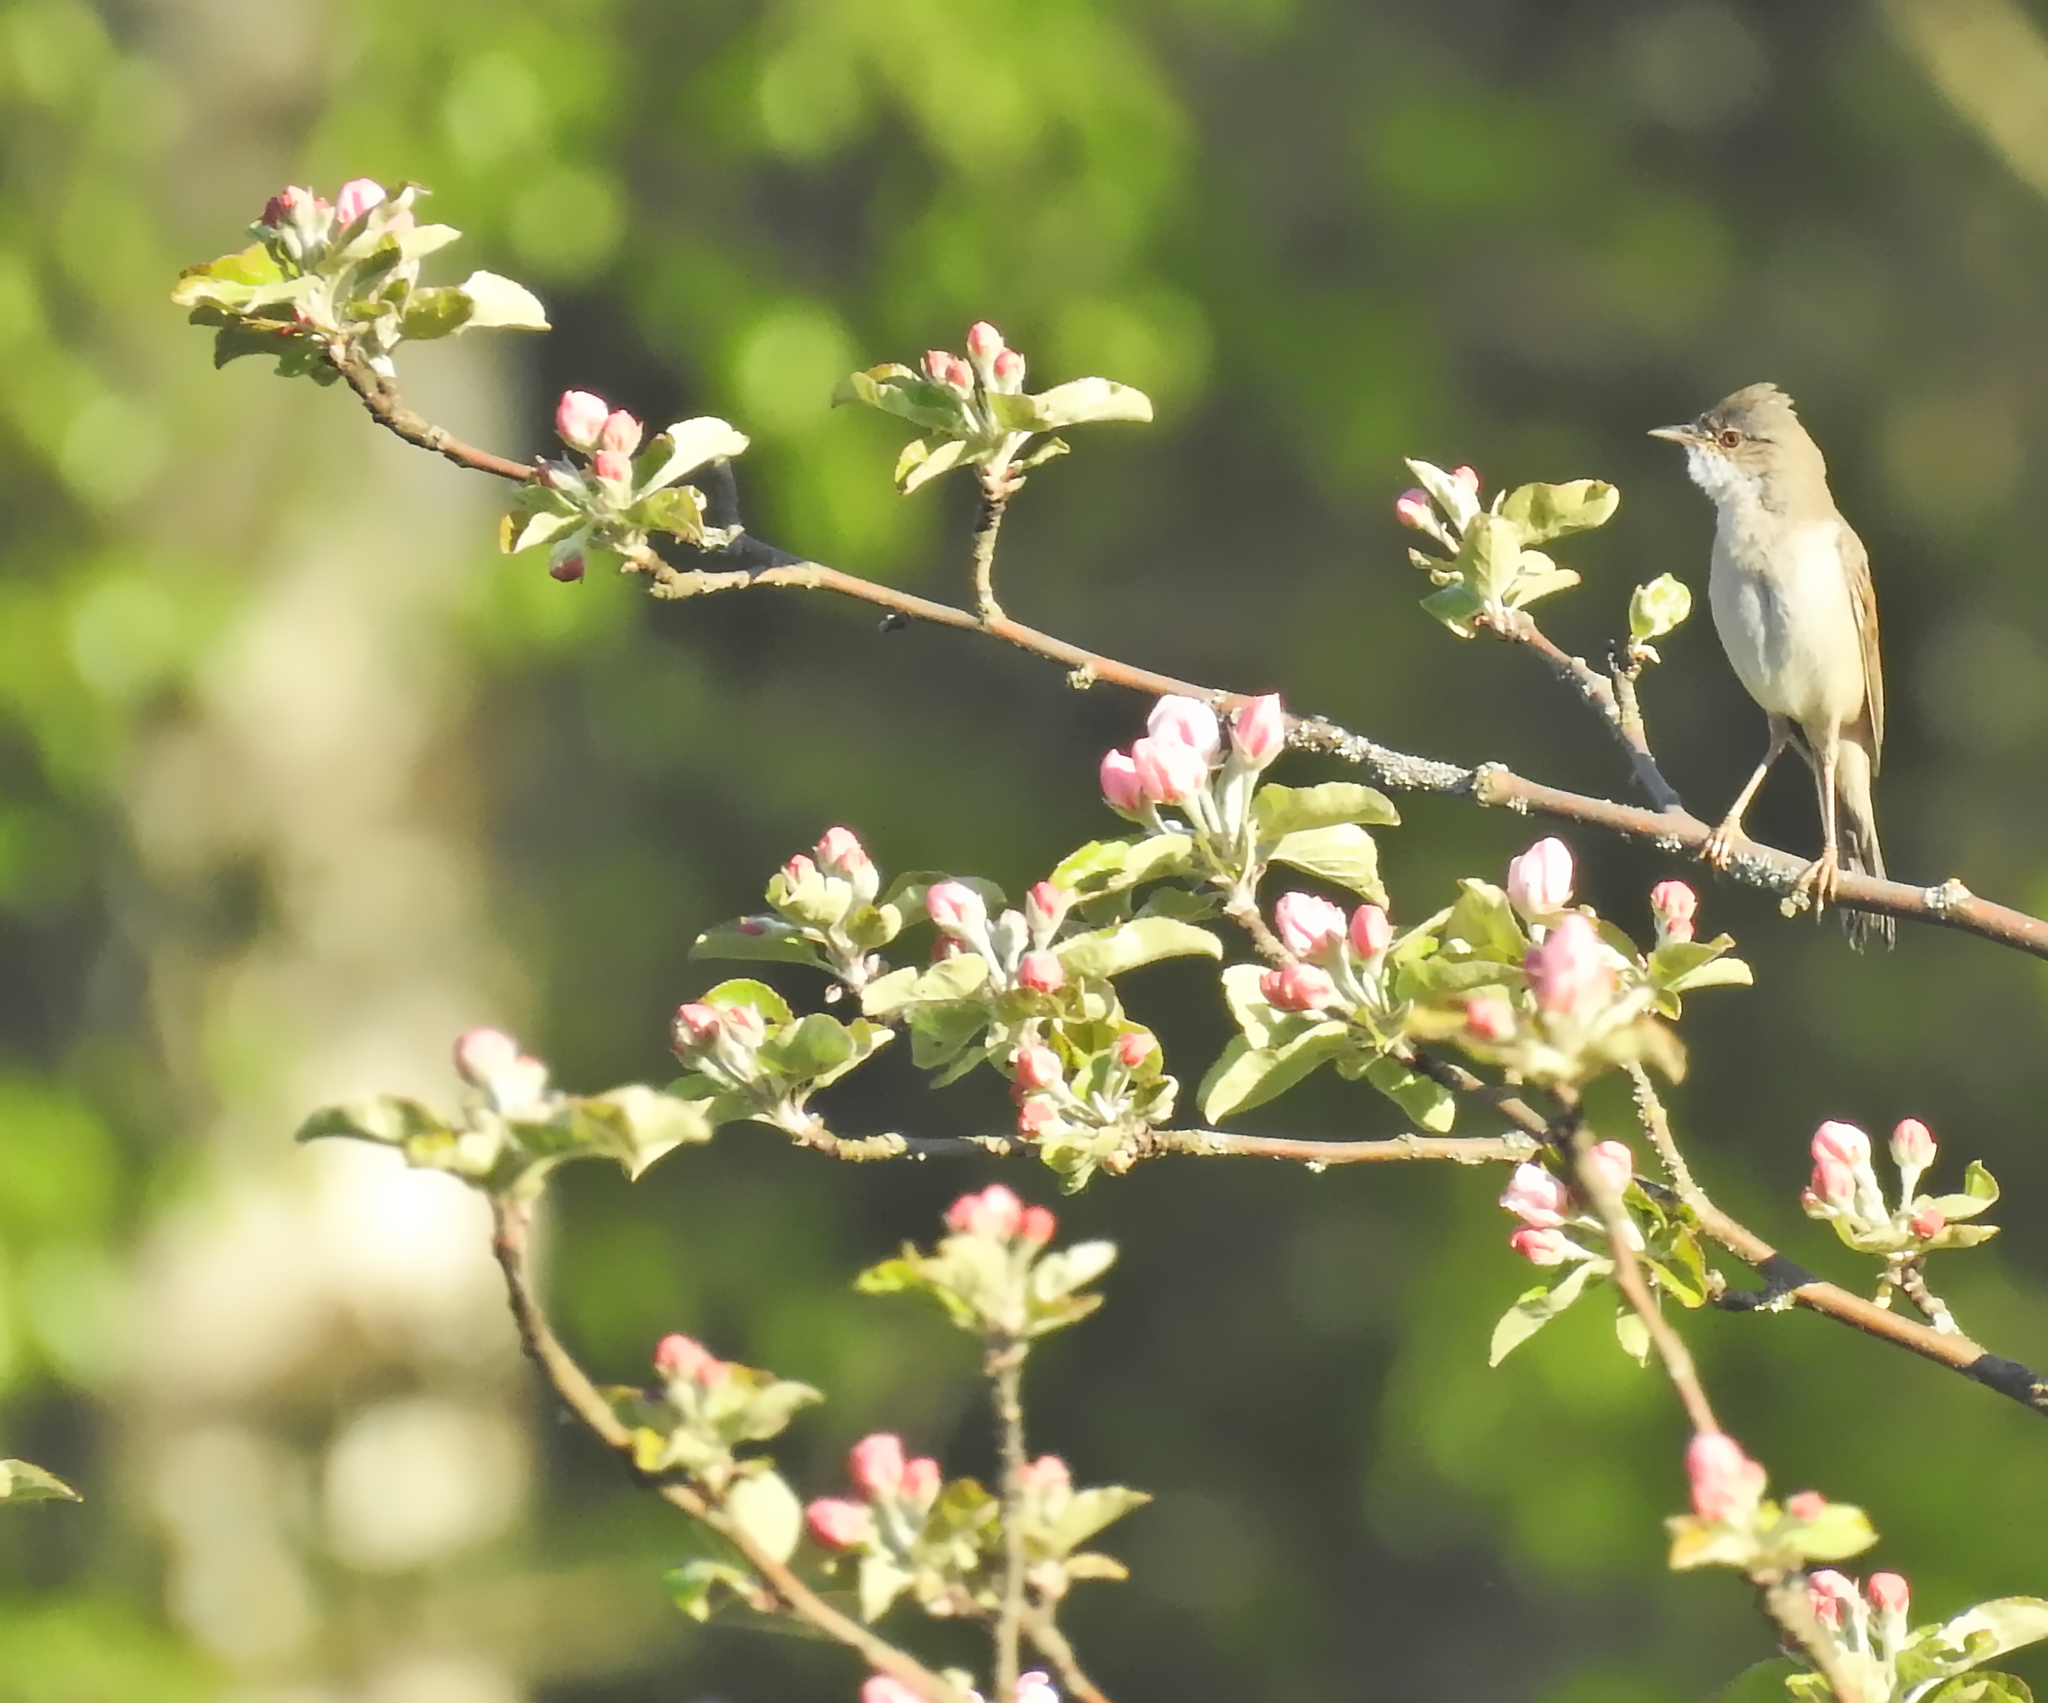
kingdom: Animalia
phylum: Chordata
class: Aves
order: Passeriformes
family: Sylviidae
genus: Sylvia
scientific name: Sylvia communis
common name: Common whitethroat
